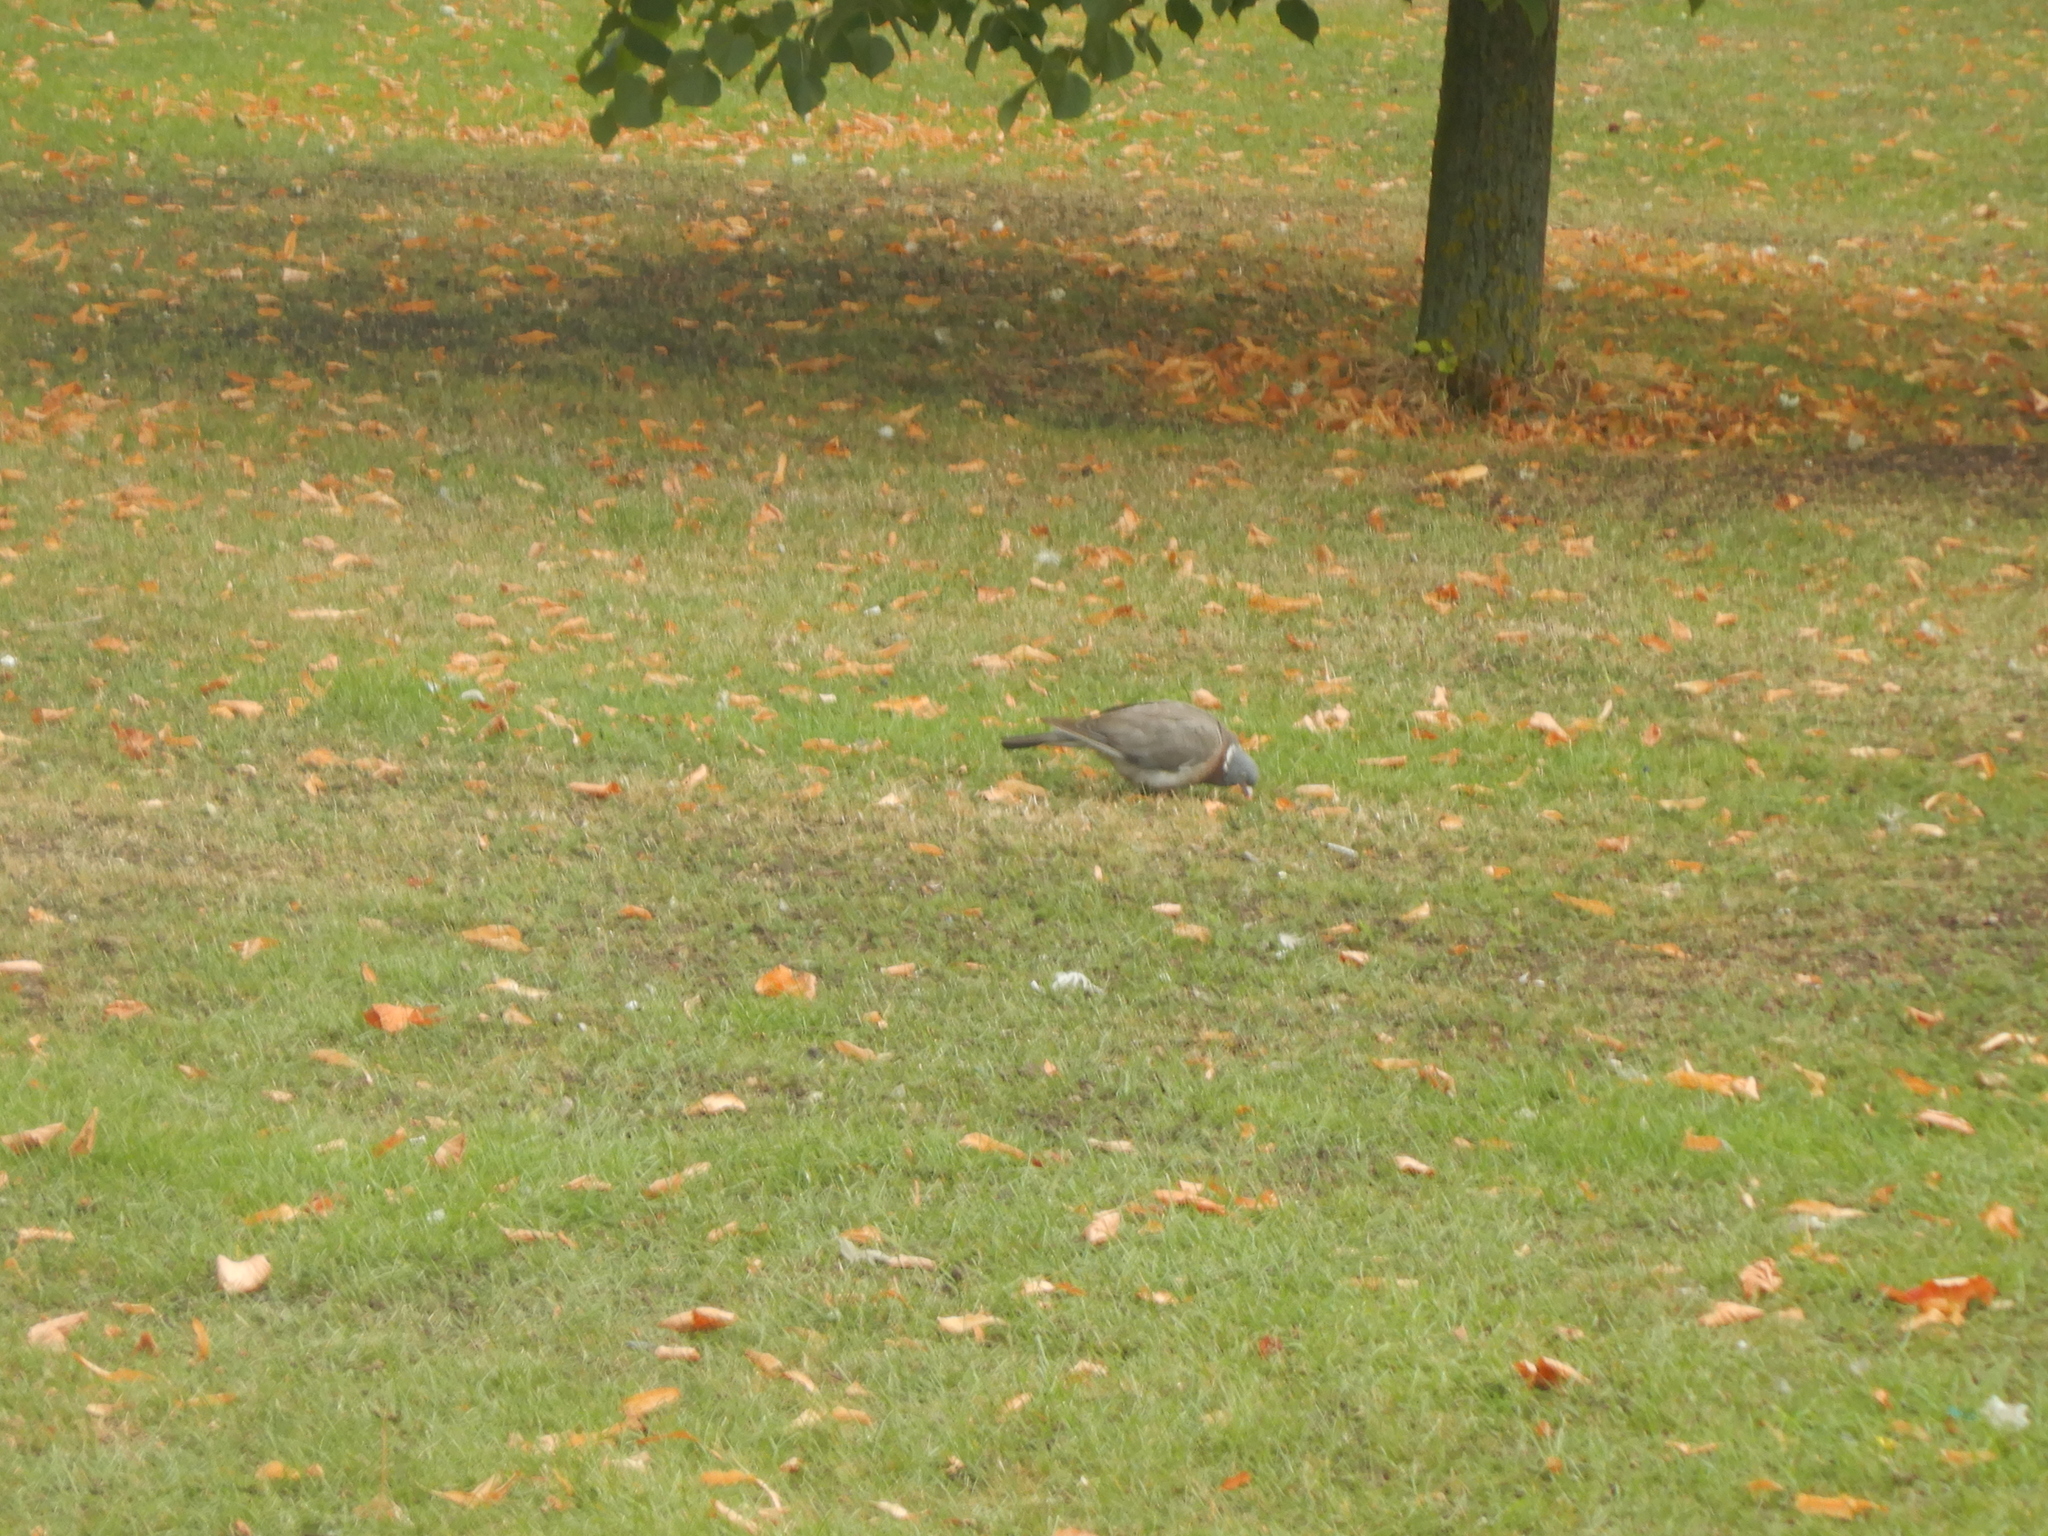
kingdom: Animalia
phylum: Chordata
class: Aves
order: Columbiformes
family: Columbidae
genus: Columba
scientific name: Columba palumbus
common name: Common wood pigeon
